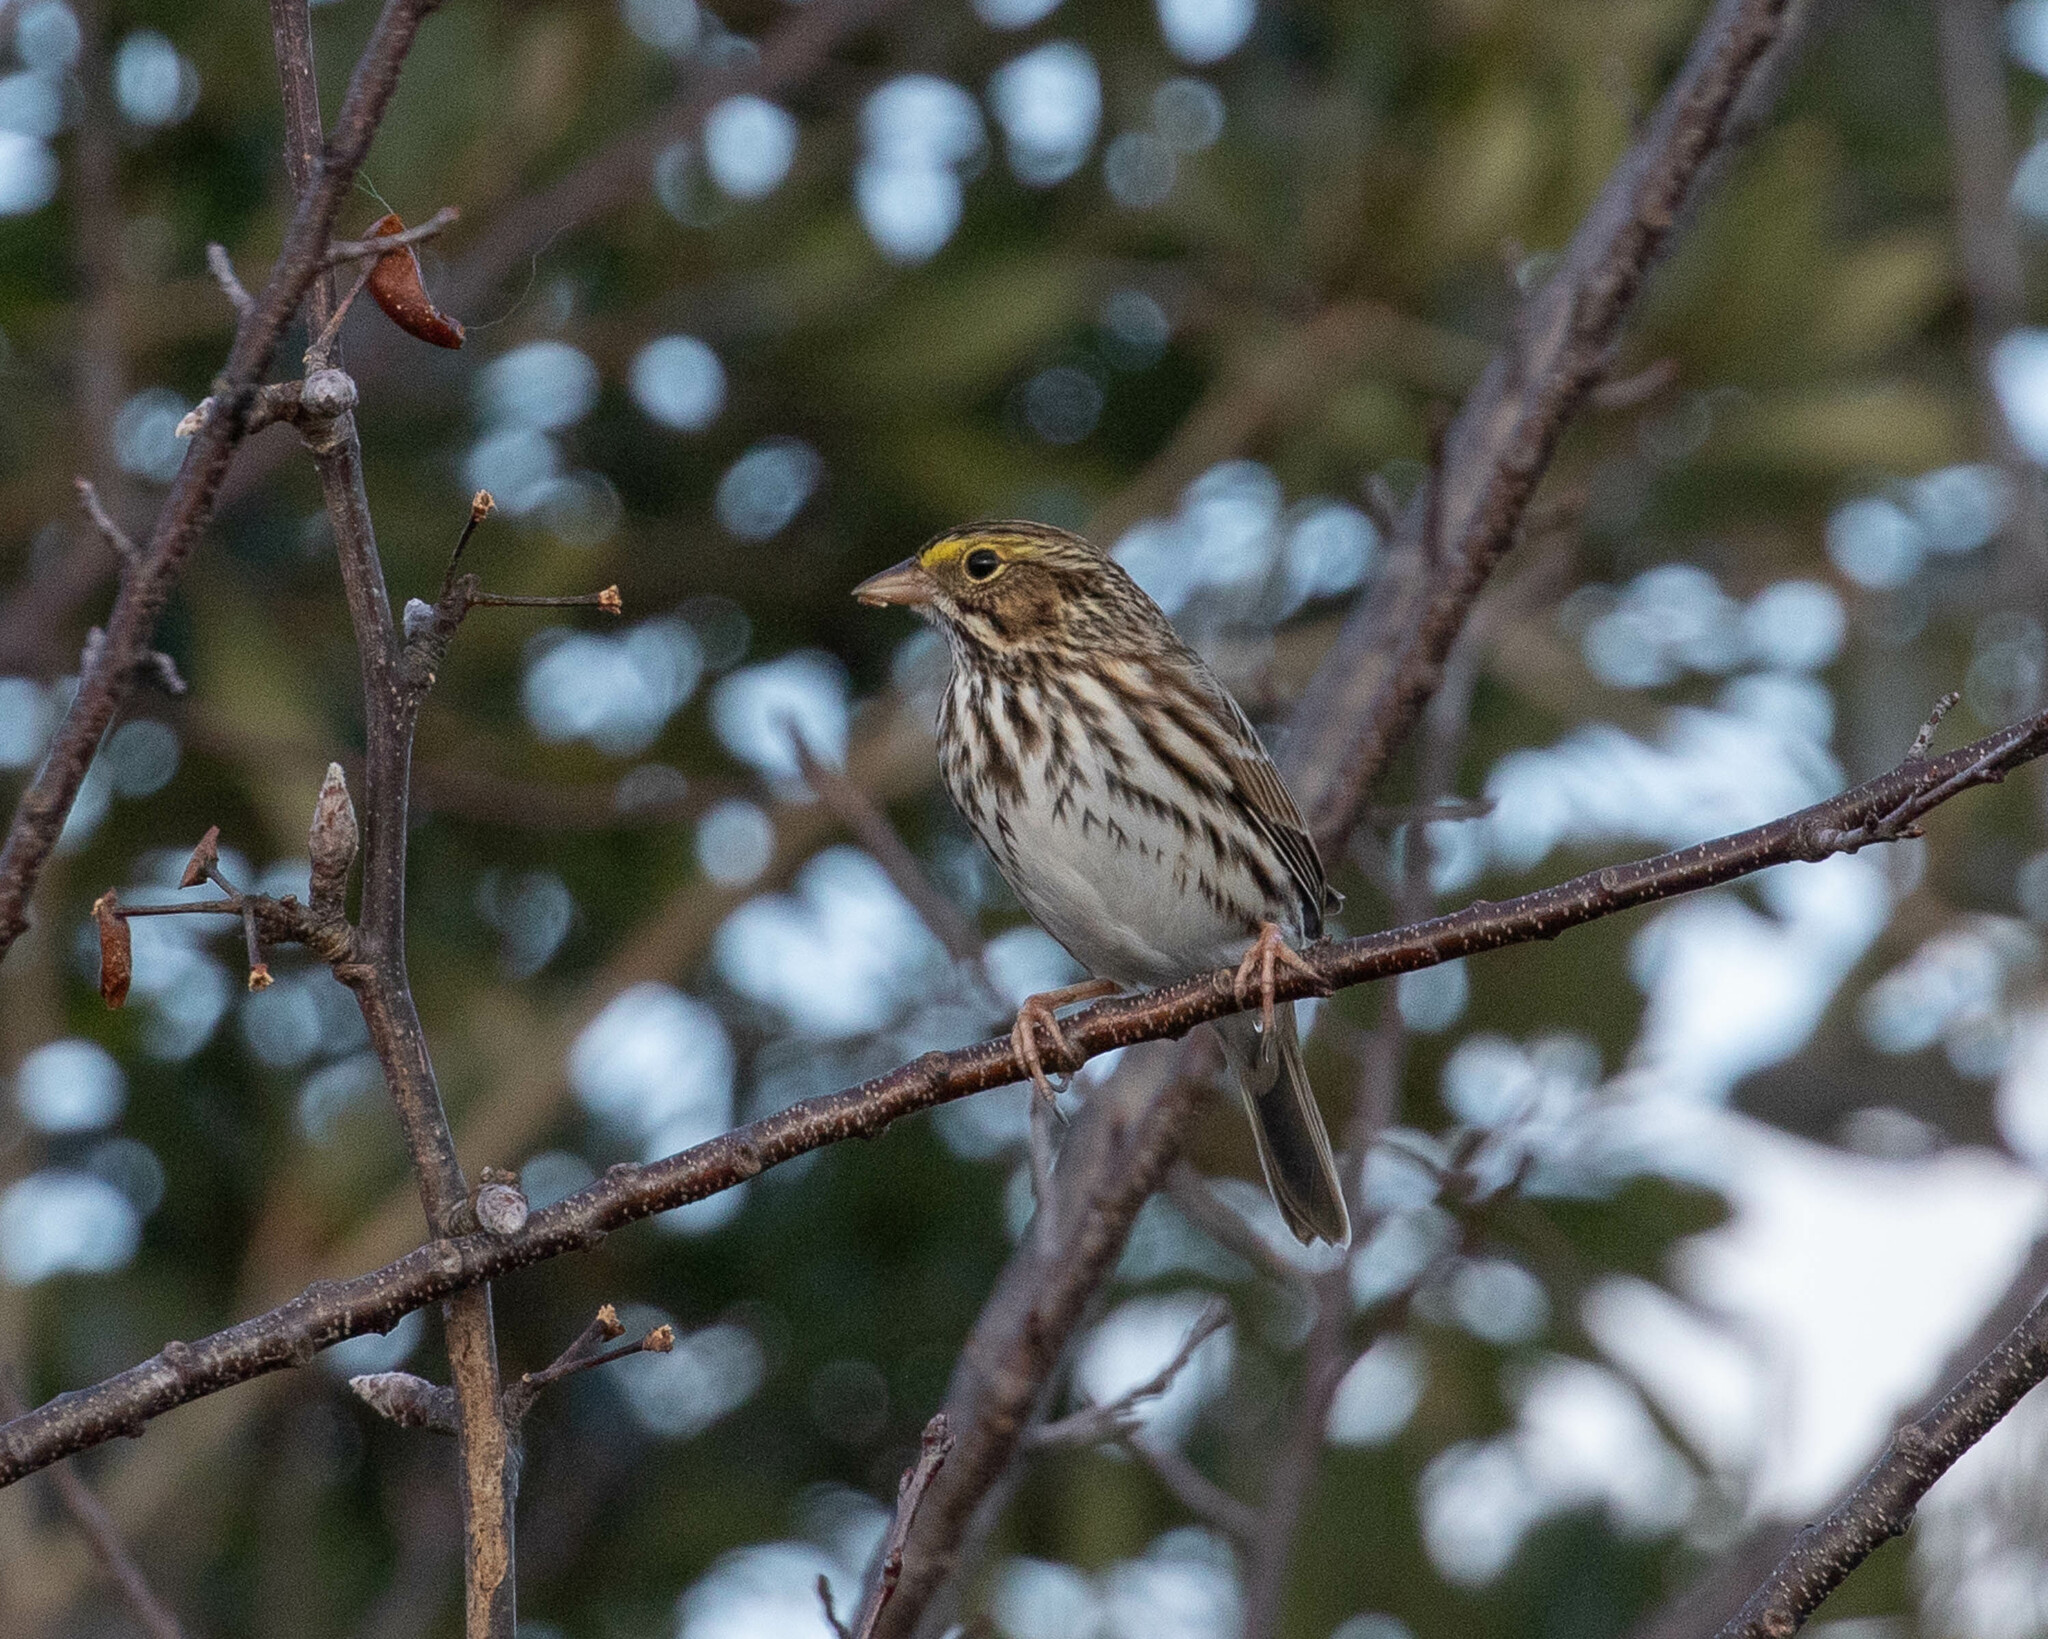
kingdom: Animalia
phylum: Chordata
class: Aves
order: Passeriformes
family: Passerellidae
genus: Passerculus
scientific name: Passerculus sandwichensis
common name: Savannah sparrow
